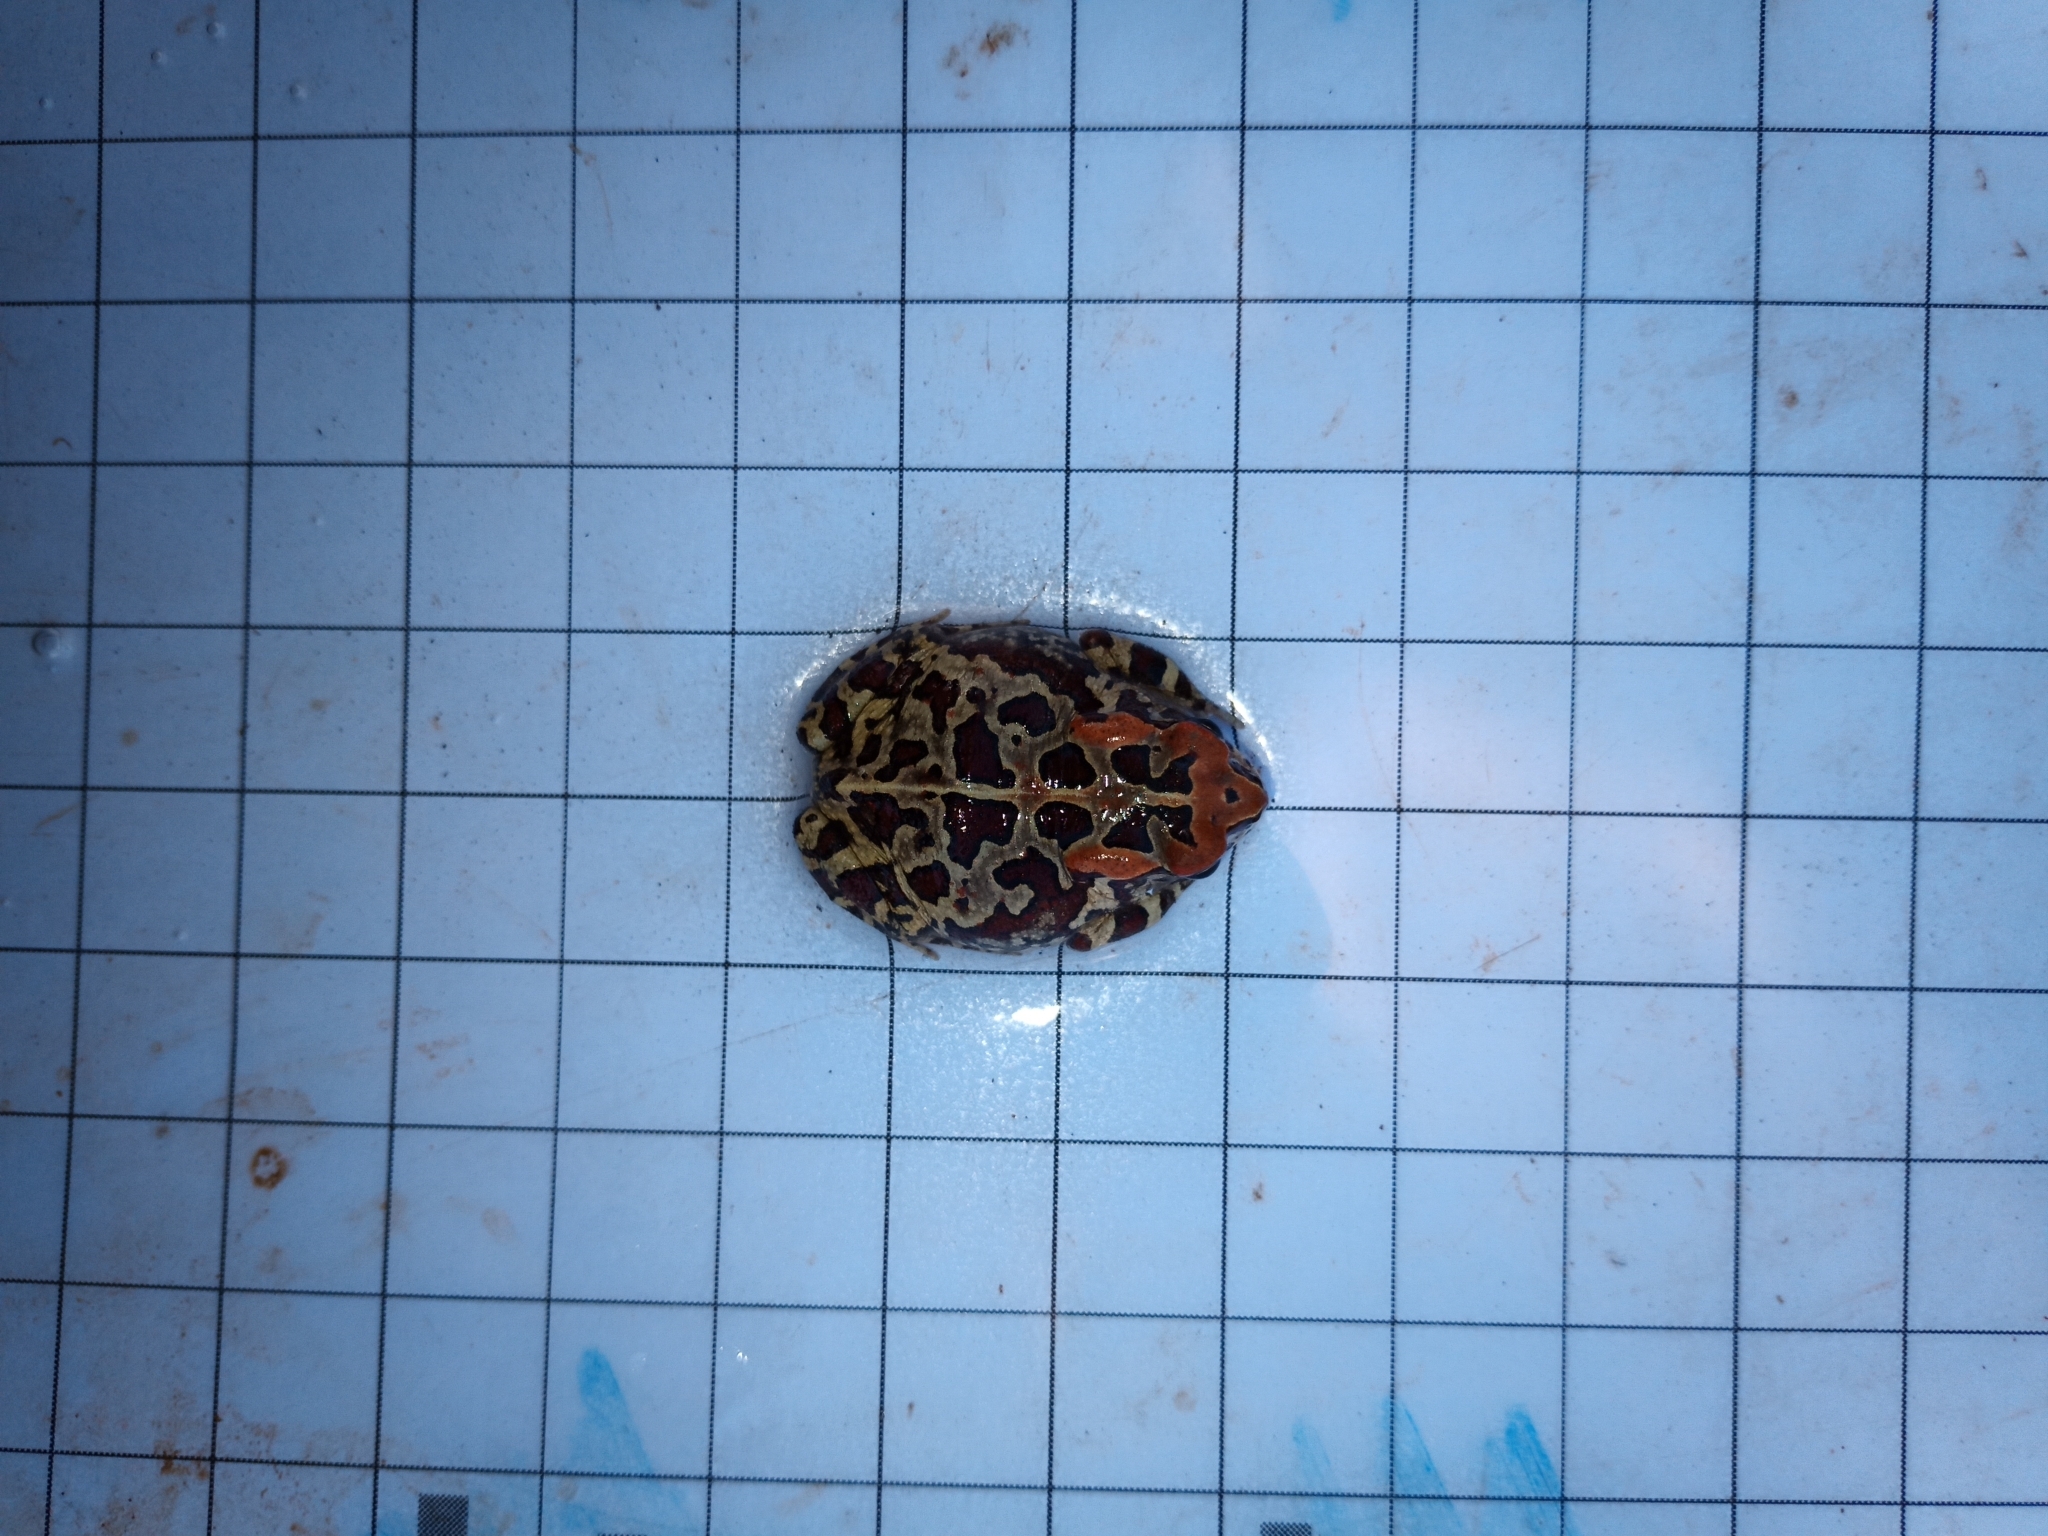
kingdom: Animalia
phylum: Chordata
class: Amphibia
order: Anura
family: Bufonidae
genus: Sclerophrys
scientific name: Sclerophrys pantherina
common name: Panther toad
